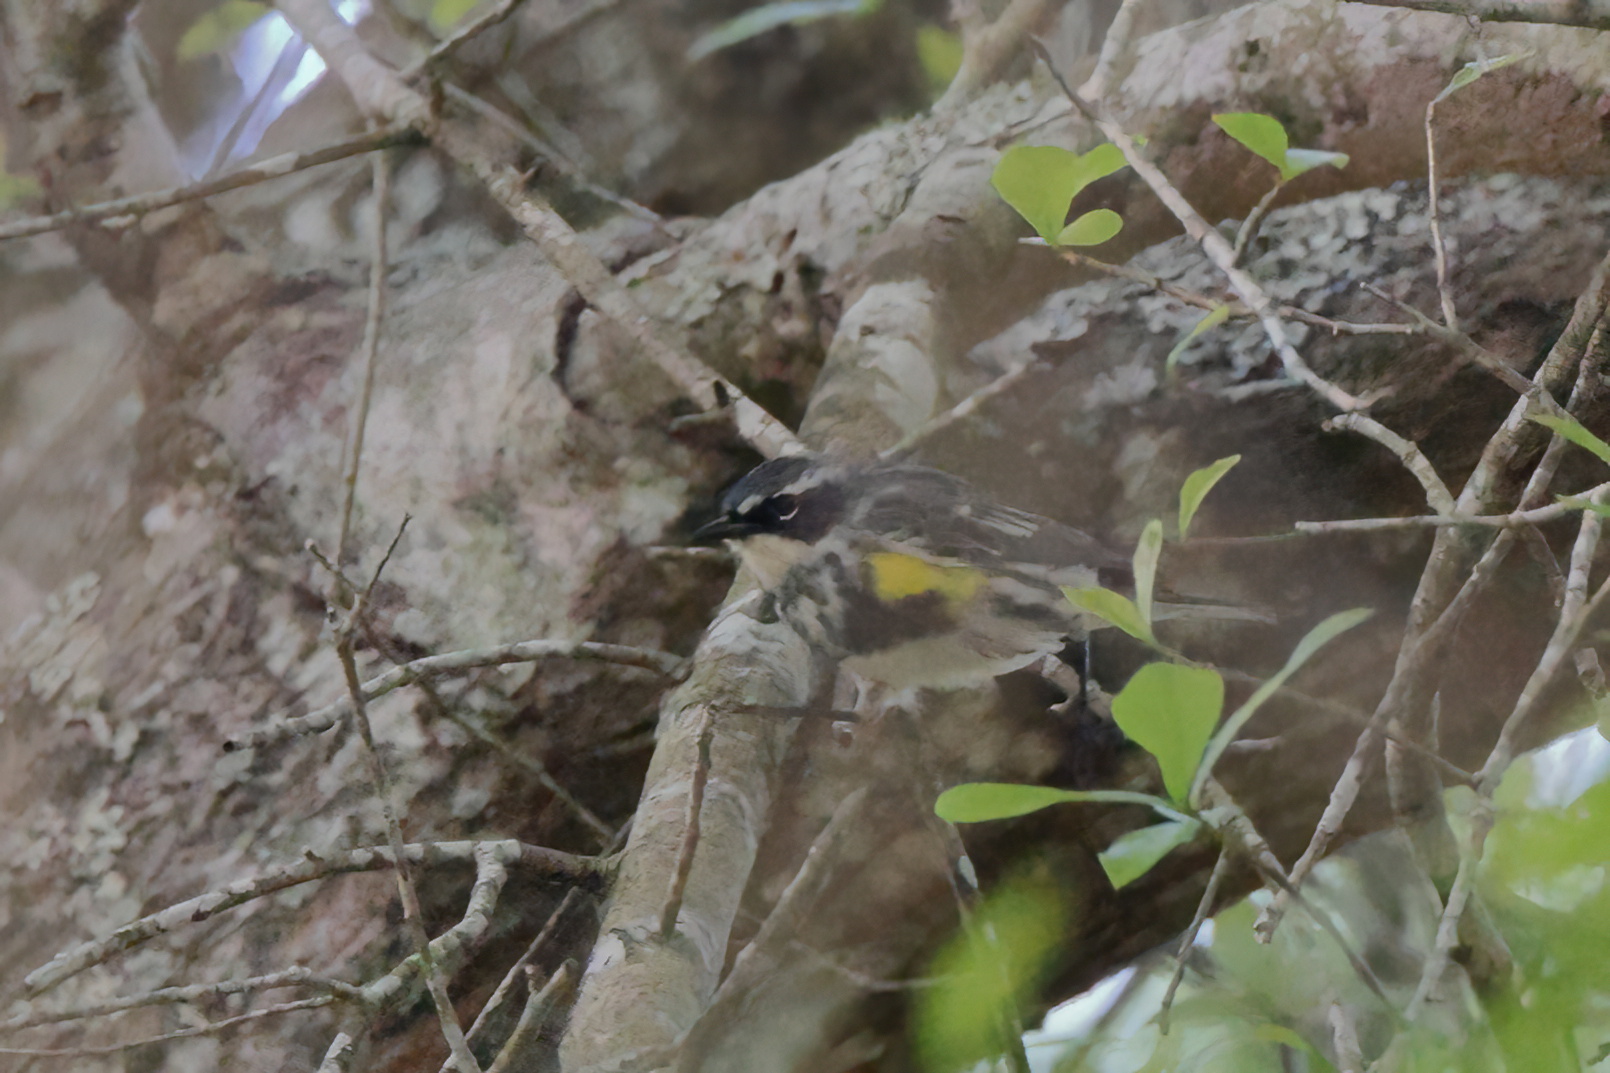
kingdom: Animalia
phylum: Chordata
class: Aves
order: Passeriformes
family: Parulidae
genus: Setophaga
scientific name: Setophaga coronata
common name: Myrtle warbler
